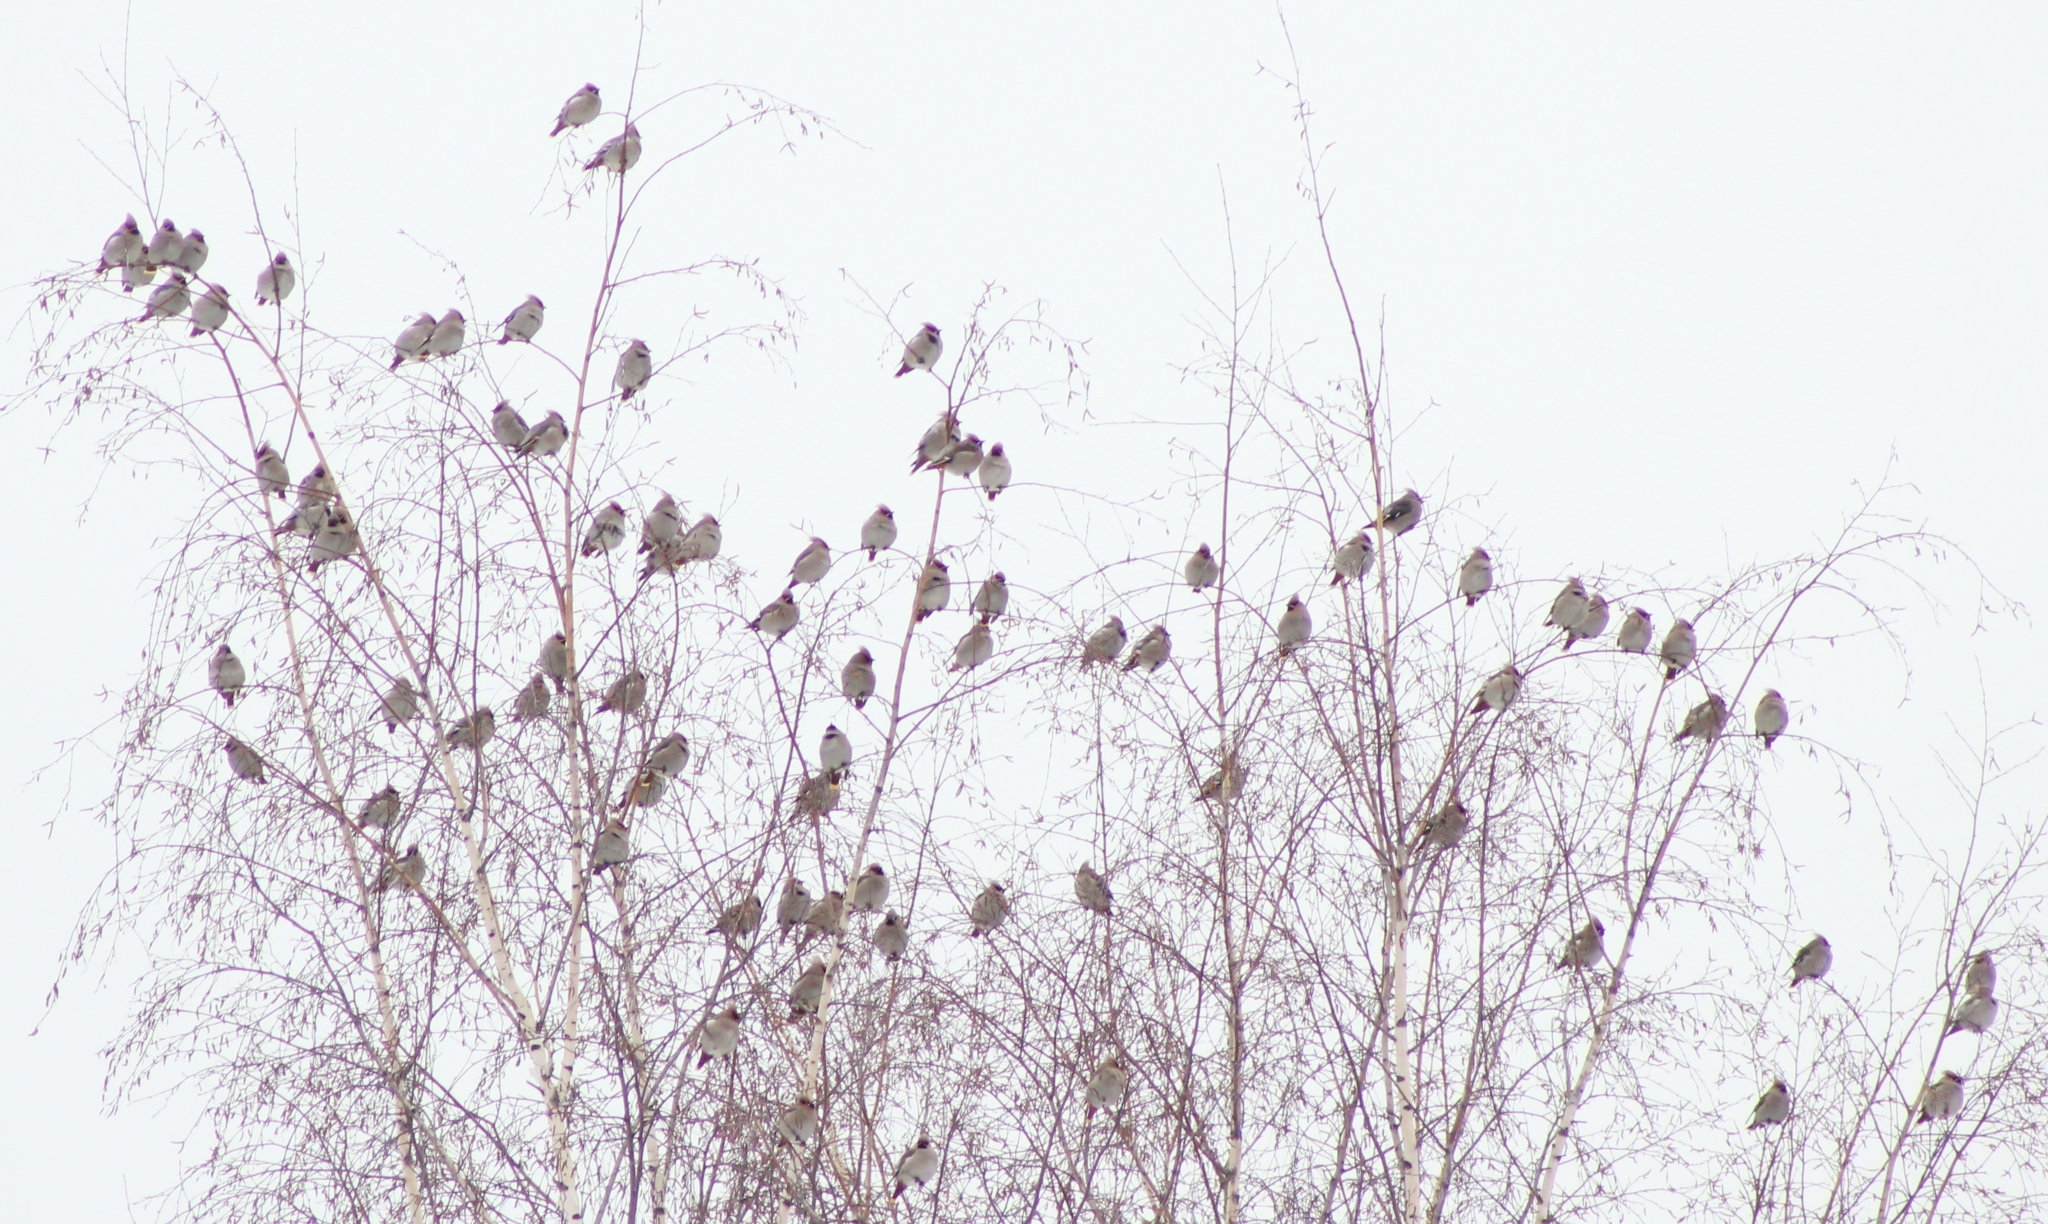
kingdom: Animalia
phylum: Chordata
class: Aves
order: Passeriformes
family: Bombycillidae
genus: Bombycilla
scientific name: Bombycilla garrulus
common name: Bohemian waxwing
